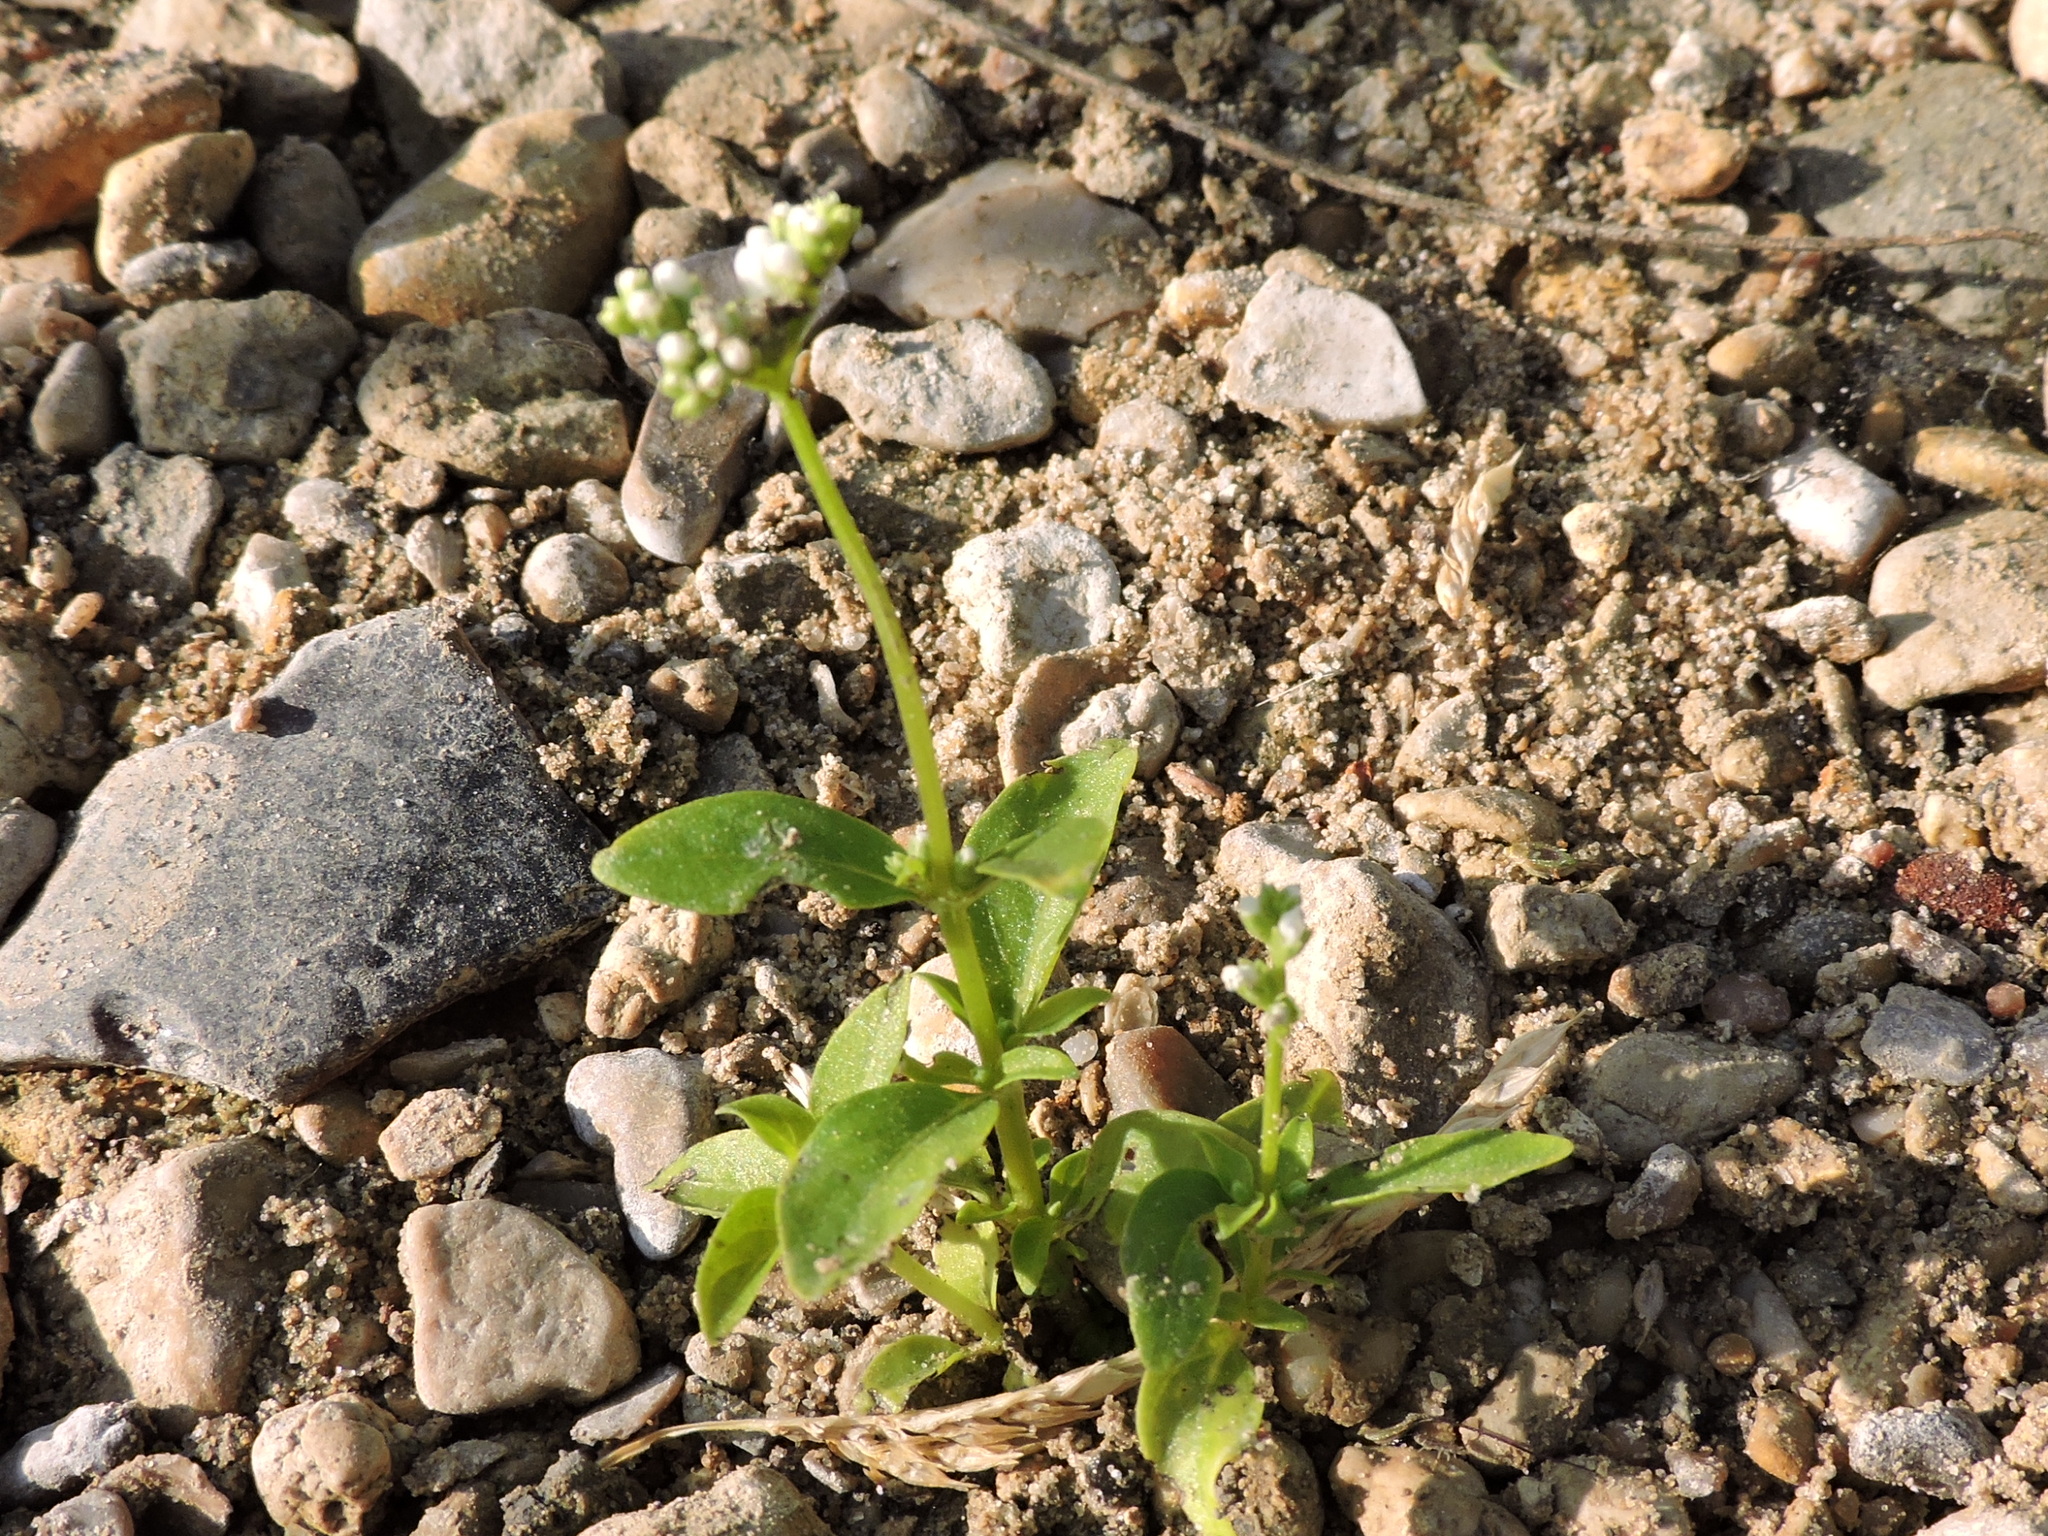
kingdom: Plantae
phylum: Tracheophyta
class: Magnoliopsida
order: Gentianales
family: Loganiaceae
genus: Mitreola
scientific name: Mitreola petiolata
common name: Lax hornpod
